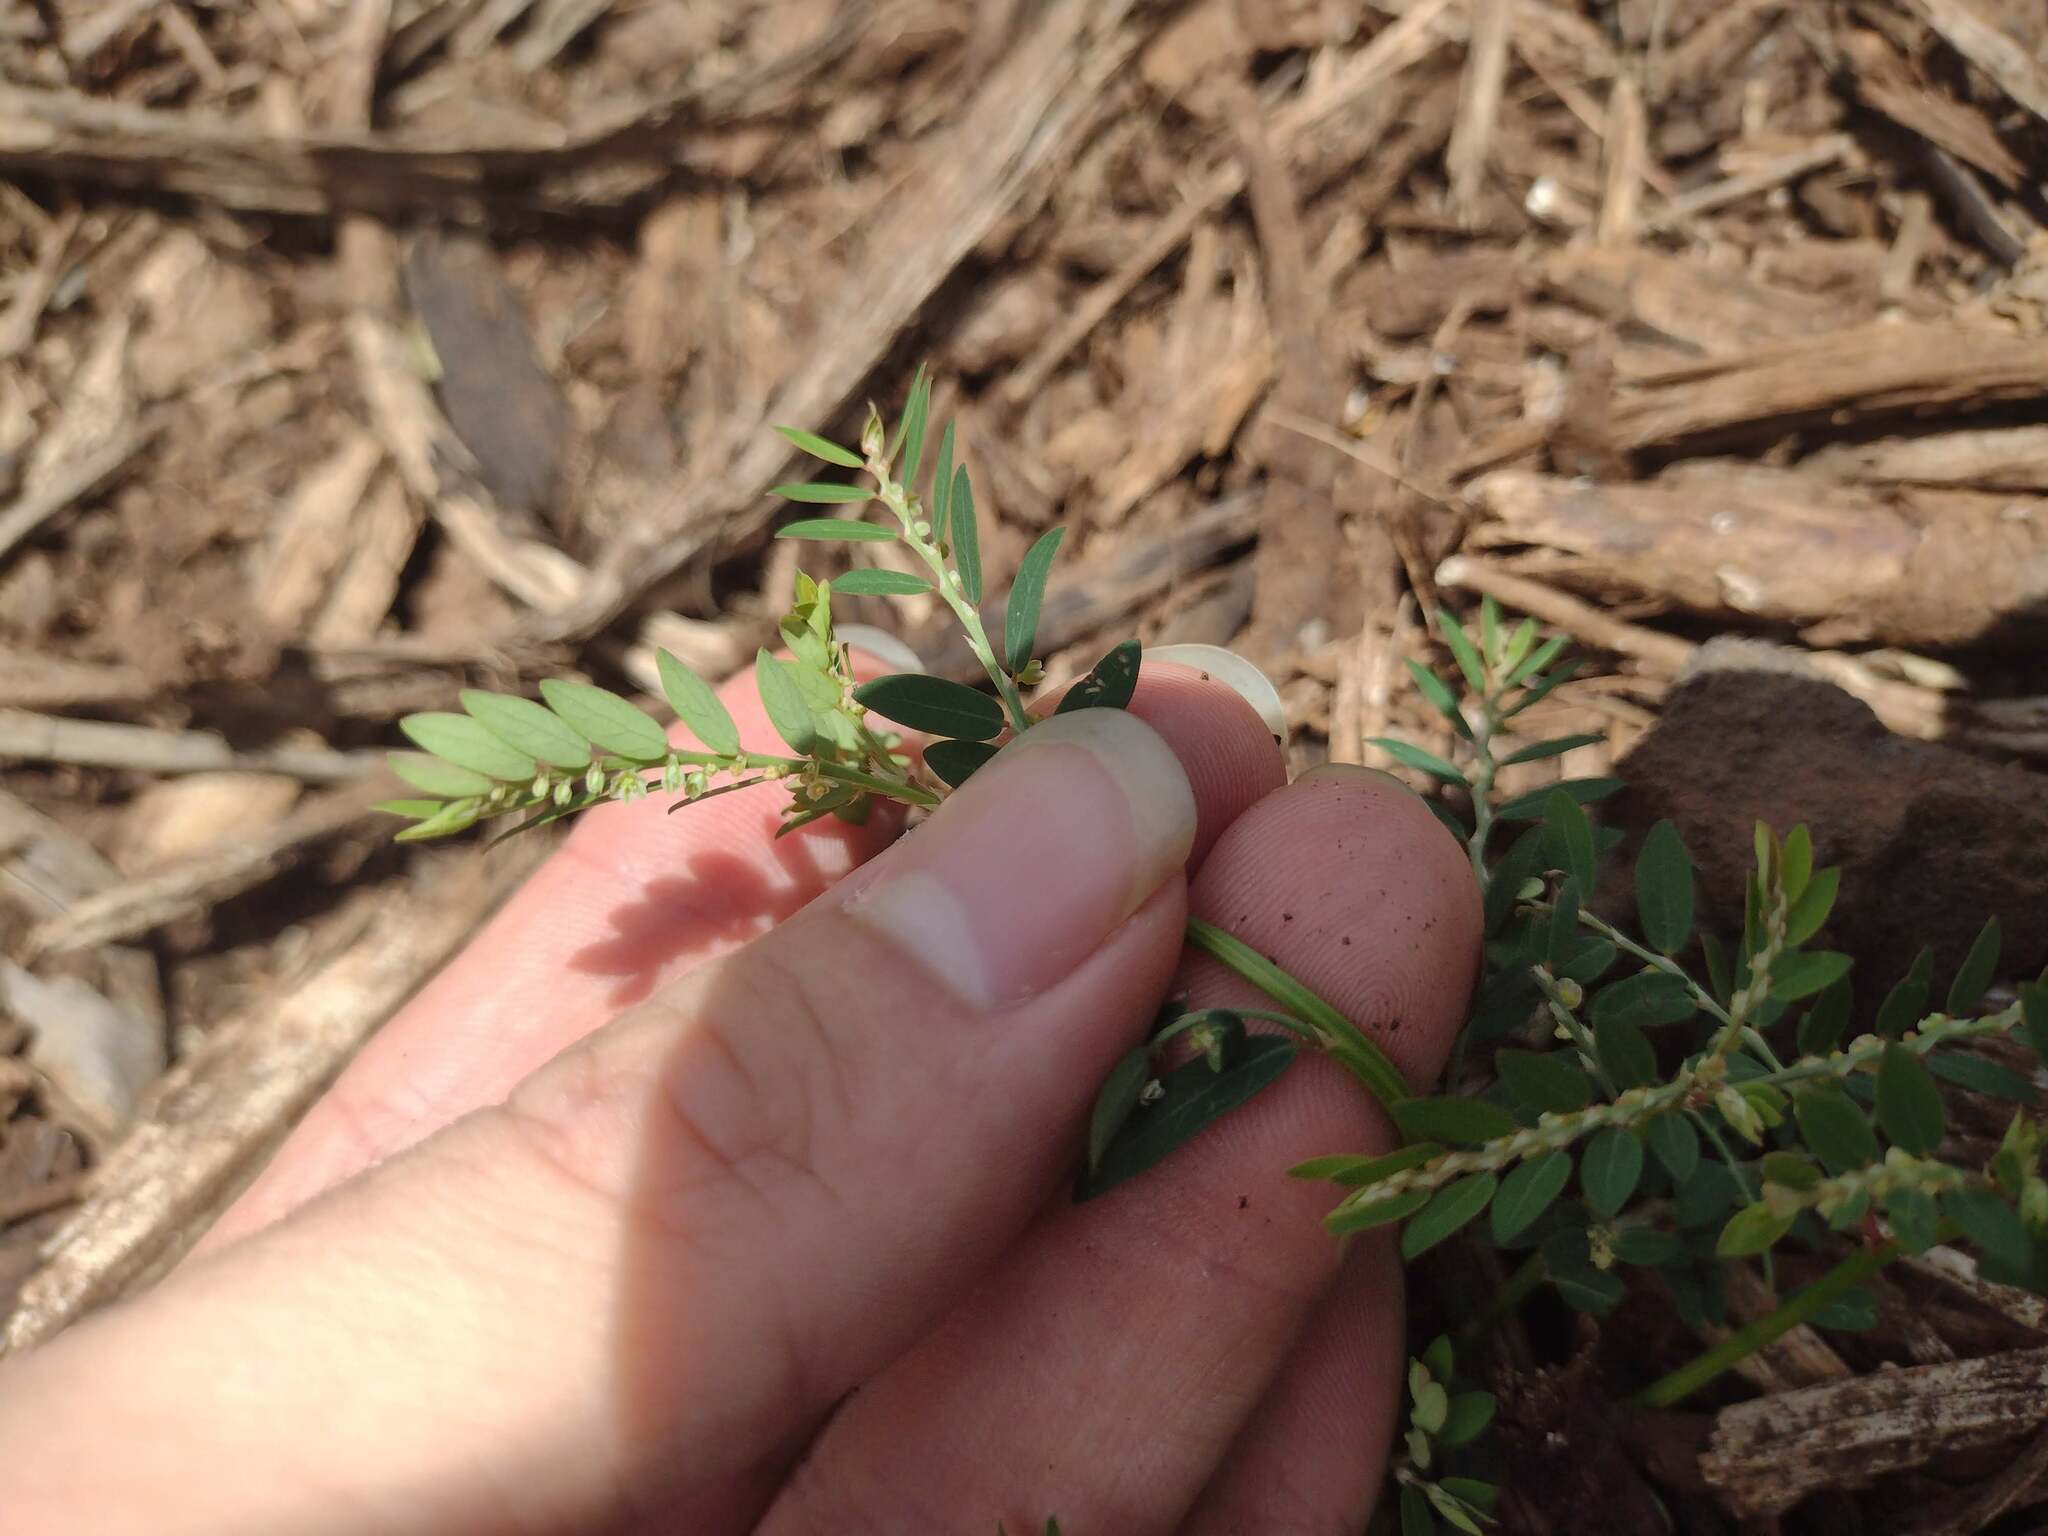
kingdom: Plantae
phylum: Tracheophyta
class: Magnoliopsida
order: Malpighiales
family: Phyllanthaceae
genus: Phyllanthus
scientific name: Phyllanthus debilis
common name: Niruri
